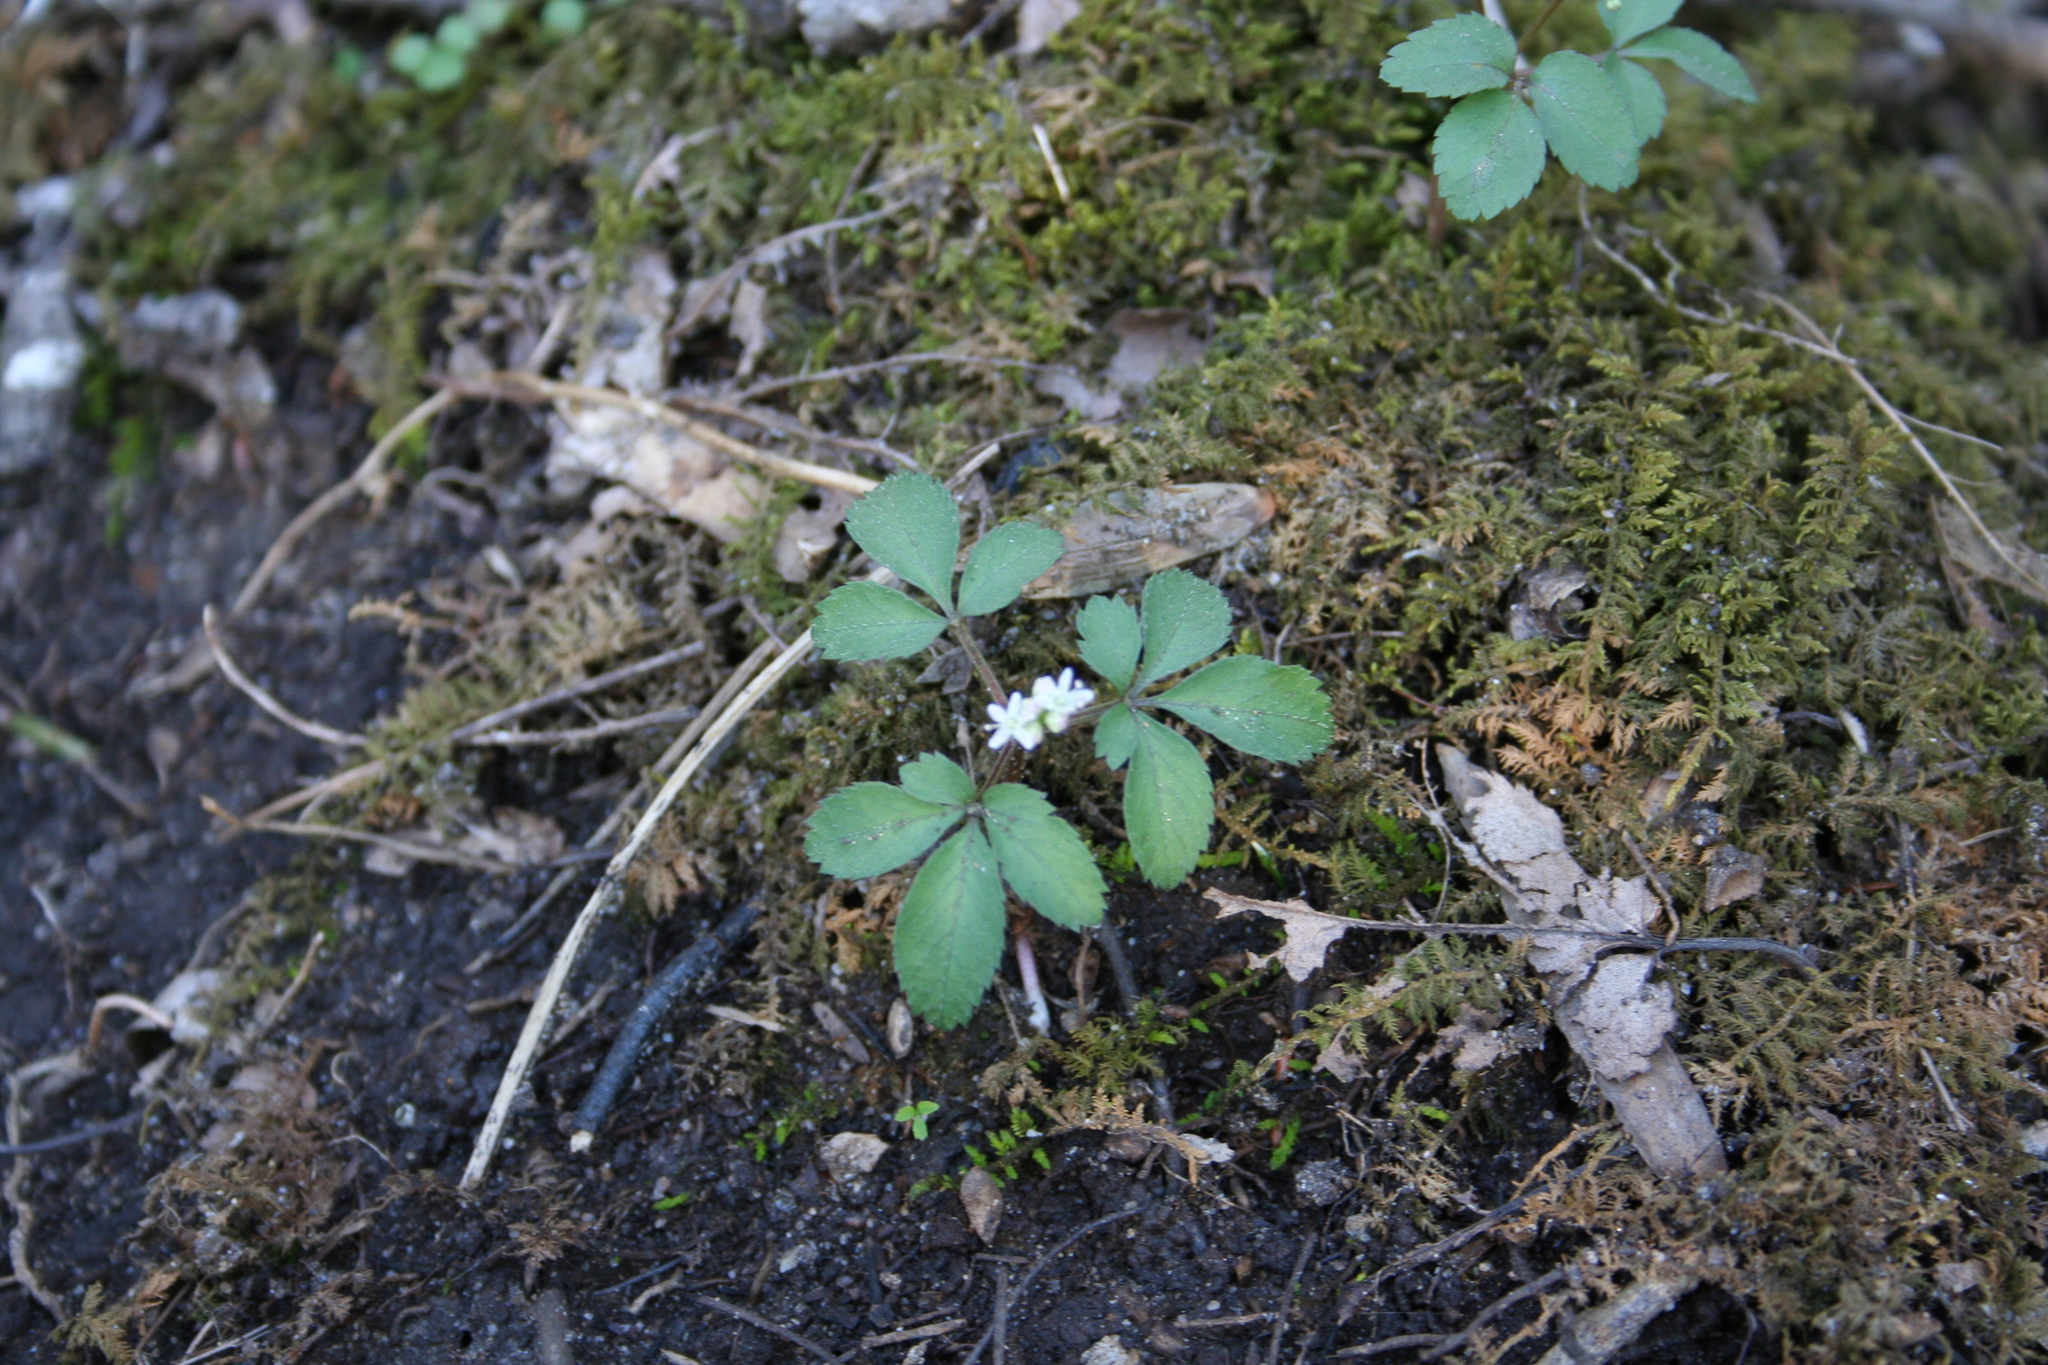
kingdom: Plantae
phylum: Tracheophyta
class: Magnoliopsida
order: Apiales
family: Araliaceae
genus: Panax
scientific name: Panax trifolius
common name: Dwarf ginseng
